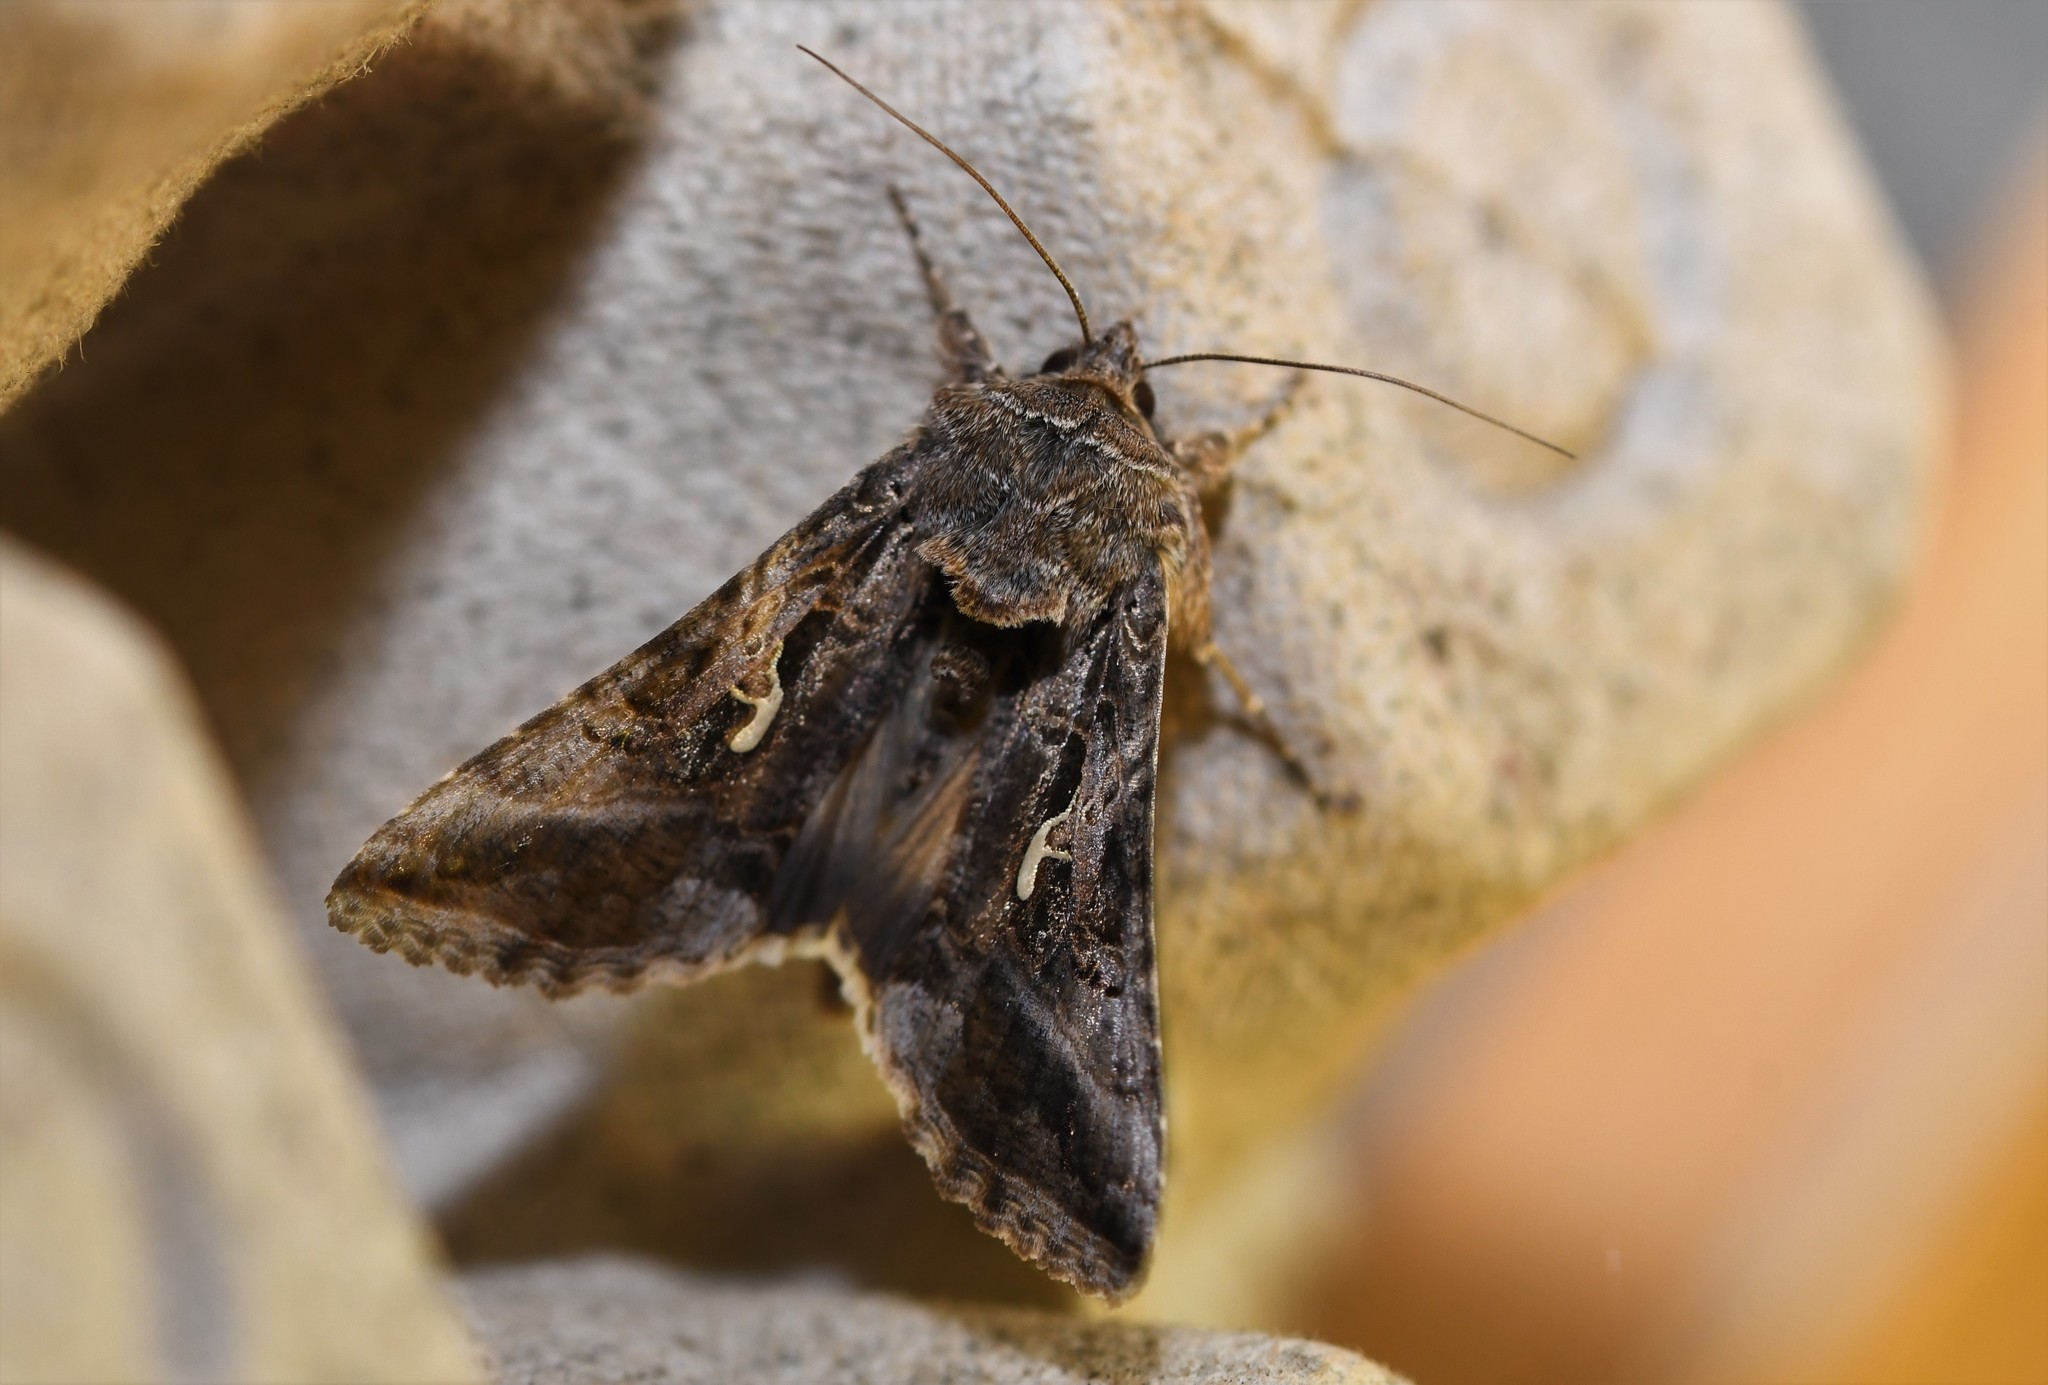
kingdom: Animalia
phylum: Arthropoda
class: Insecta
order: Lepidoptera
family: Noctuidae
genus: Autographa
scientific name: Autographa gamma
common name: Silver y
